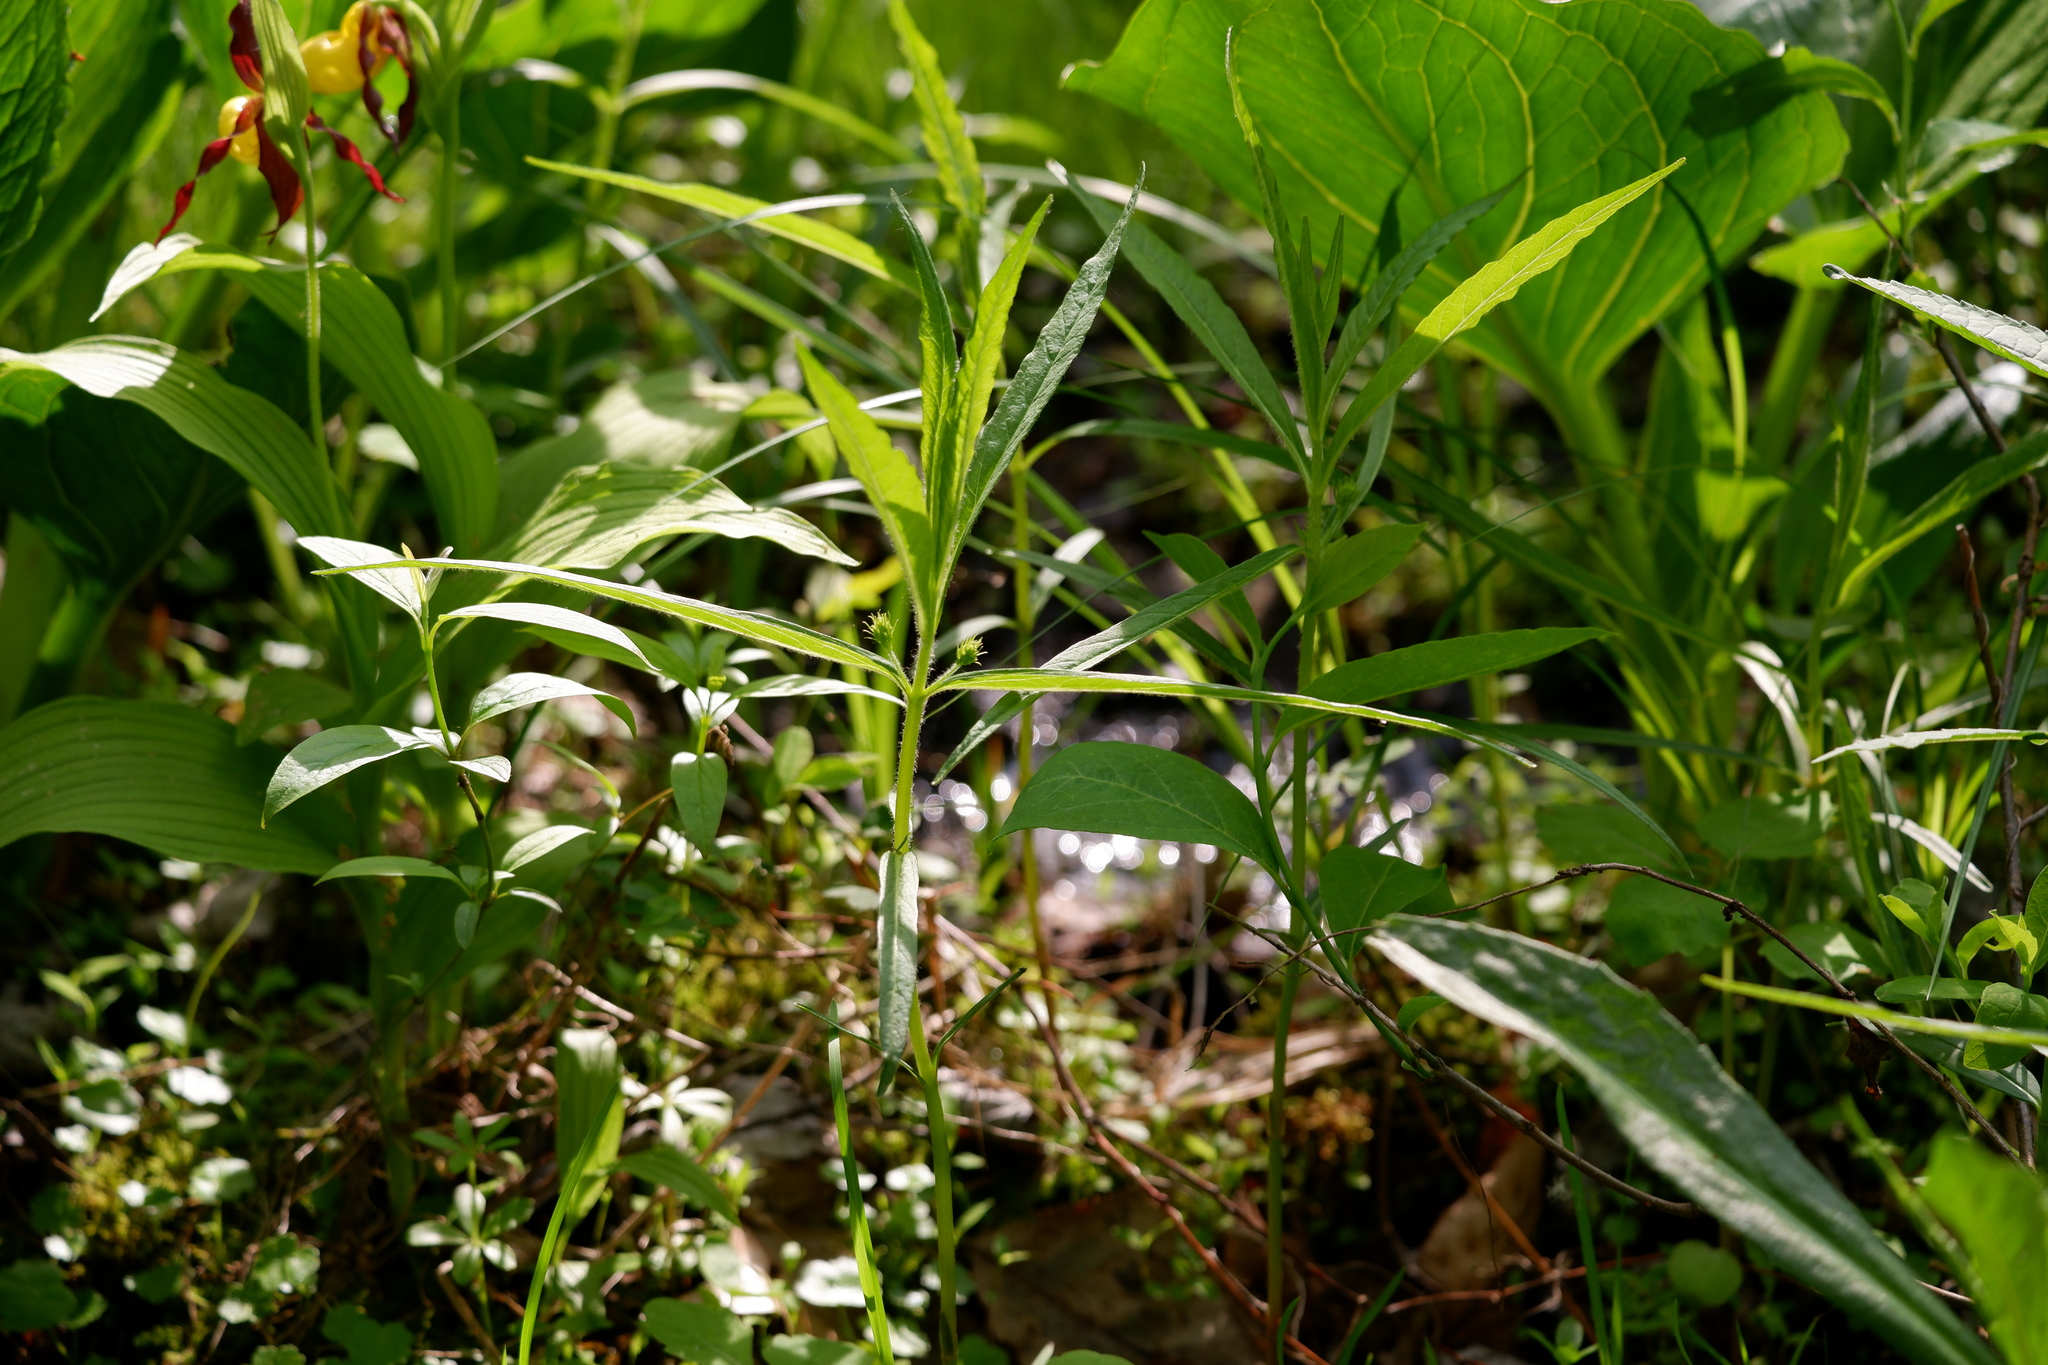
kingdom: Plantae
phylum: Tracheophyta
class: Magnoliopsida
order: Ericales
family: Primulaceae
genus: Lysimachia
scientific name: Lysimachia thyrsiflora
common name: Tufted loosestrife
